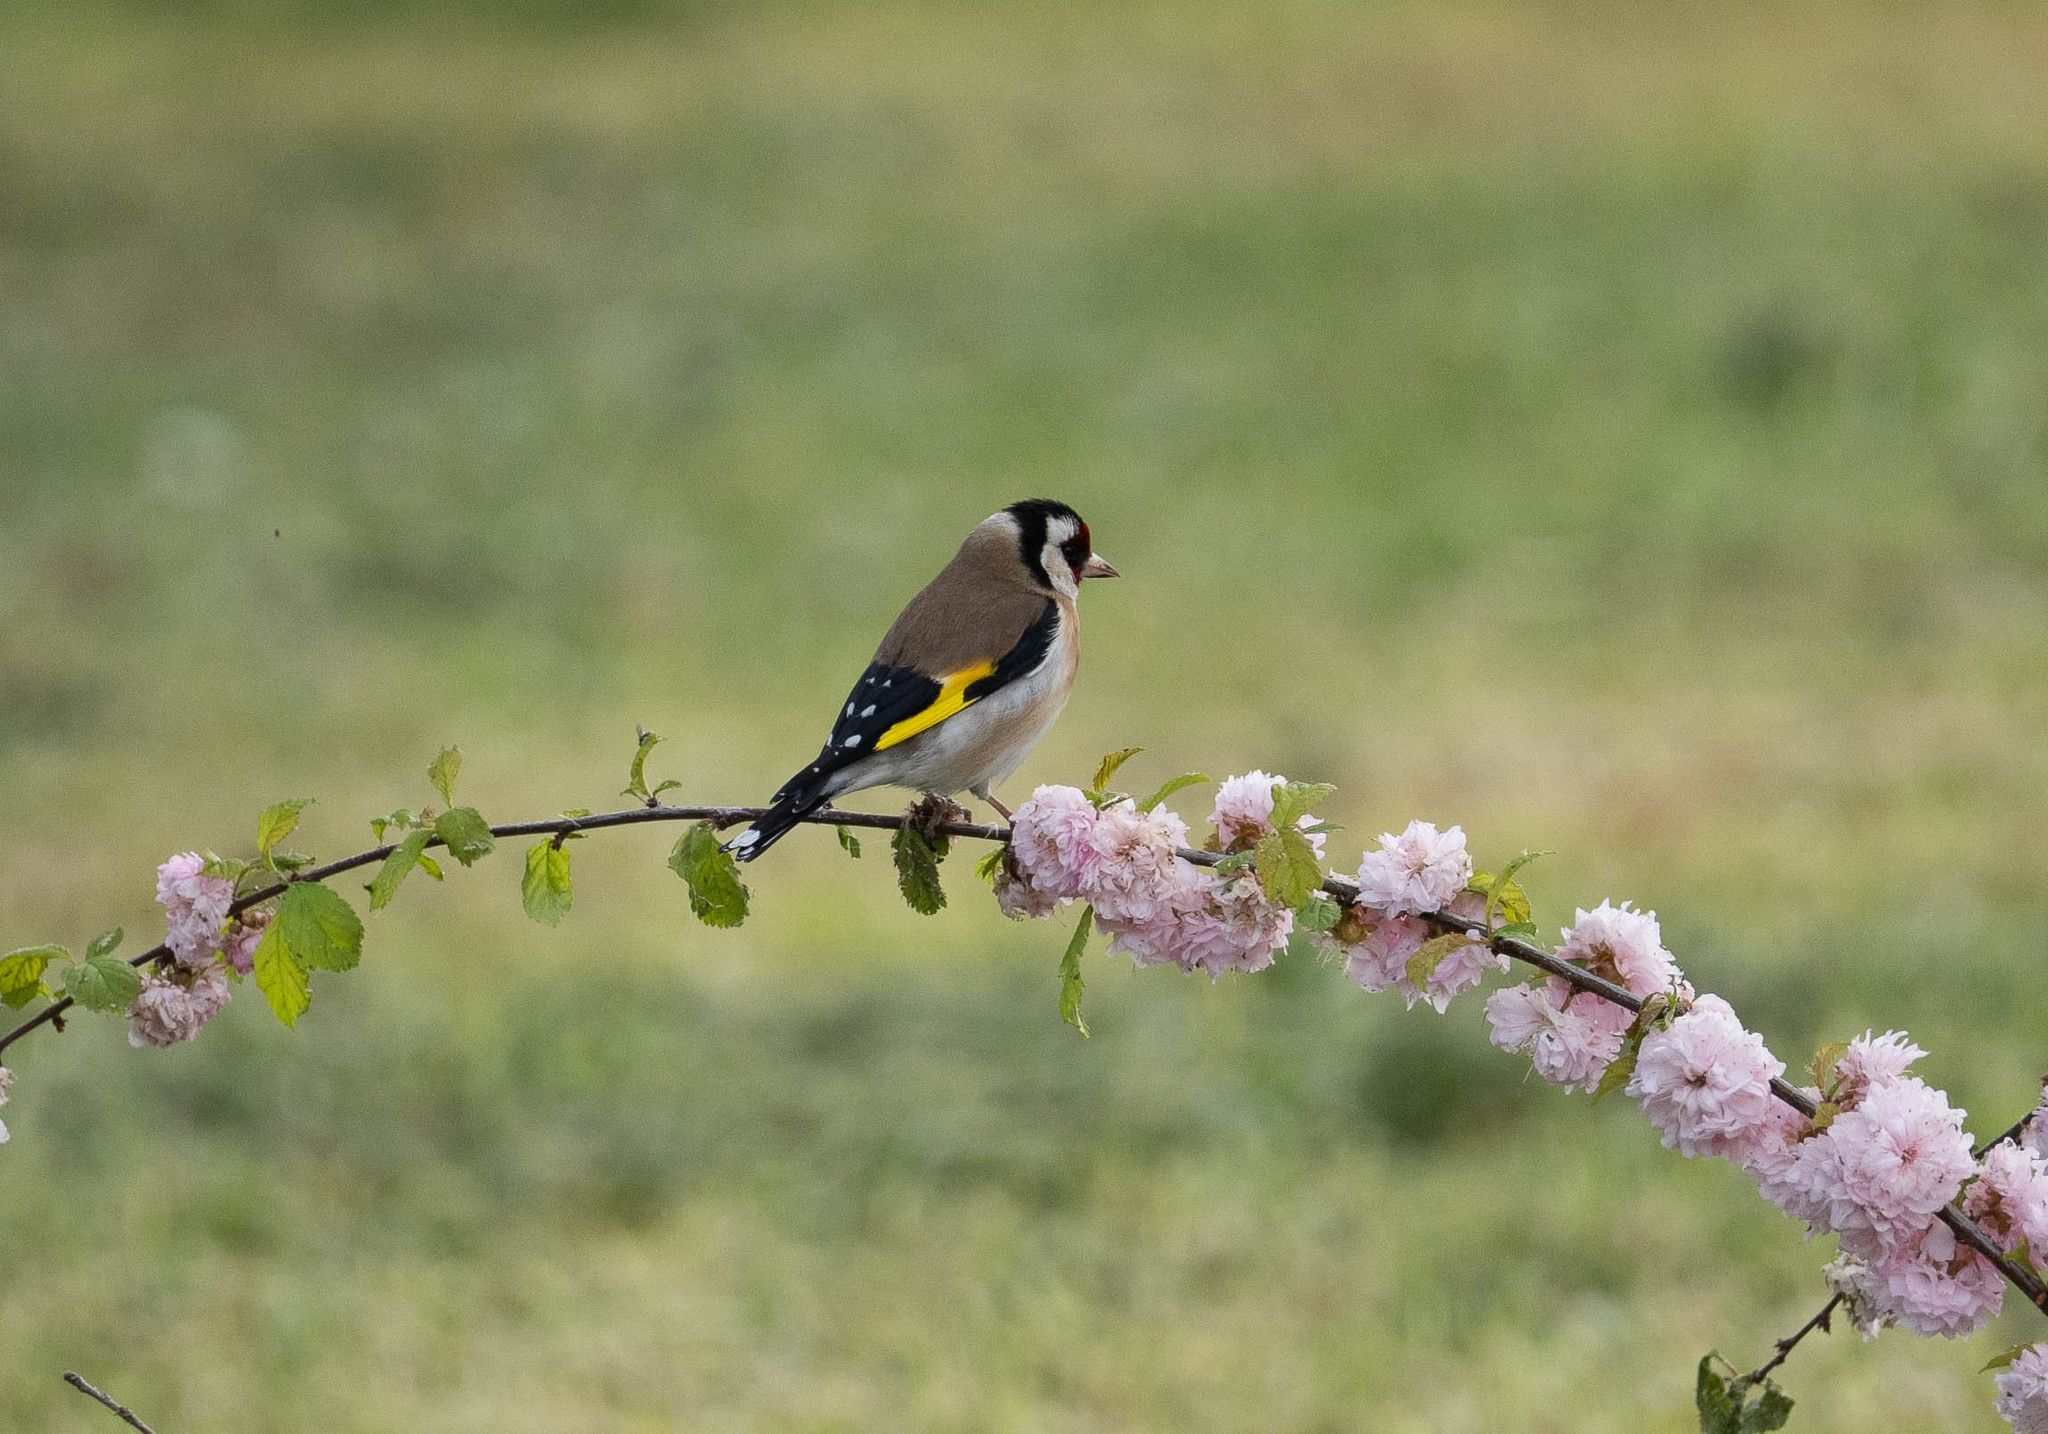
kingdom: Animalia
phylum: Chordata
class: Aves
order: Passeriformes
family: Fringillidae
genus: Carduelis
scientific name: Carduelis carduelis
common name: European goldfinch
